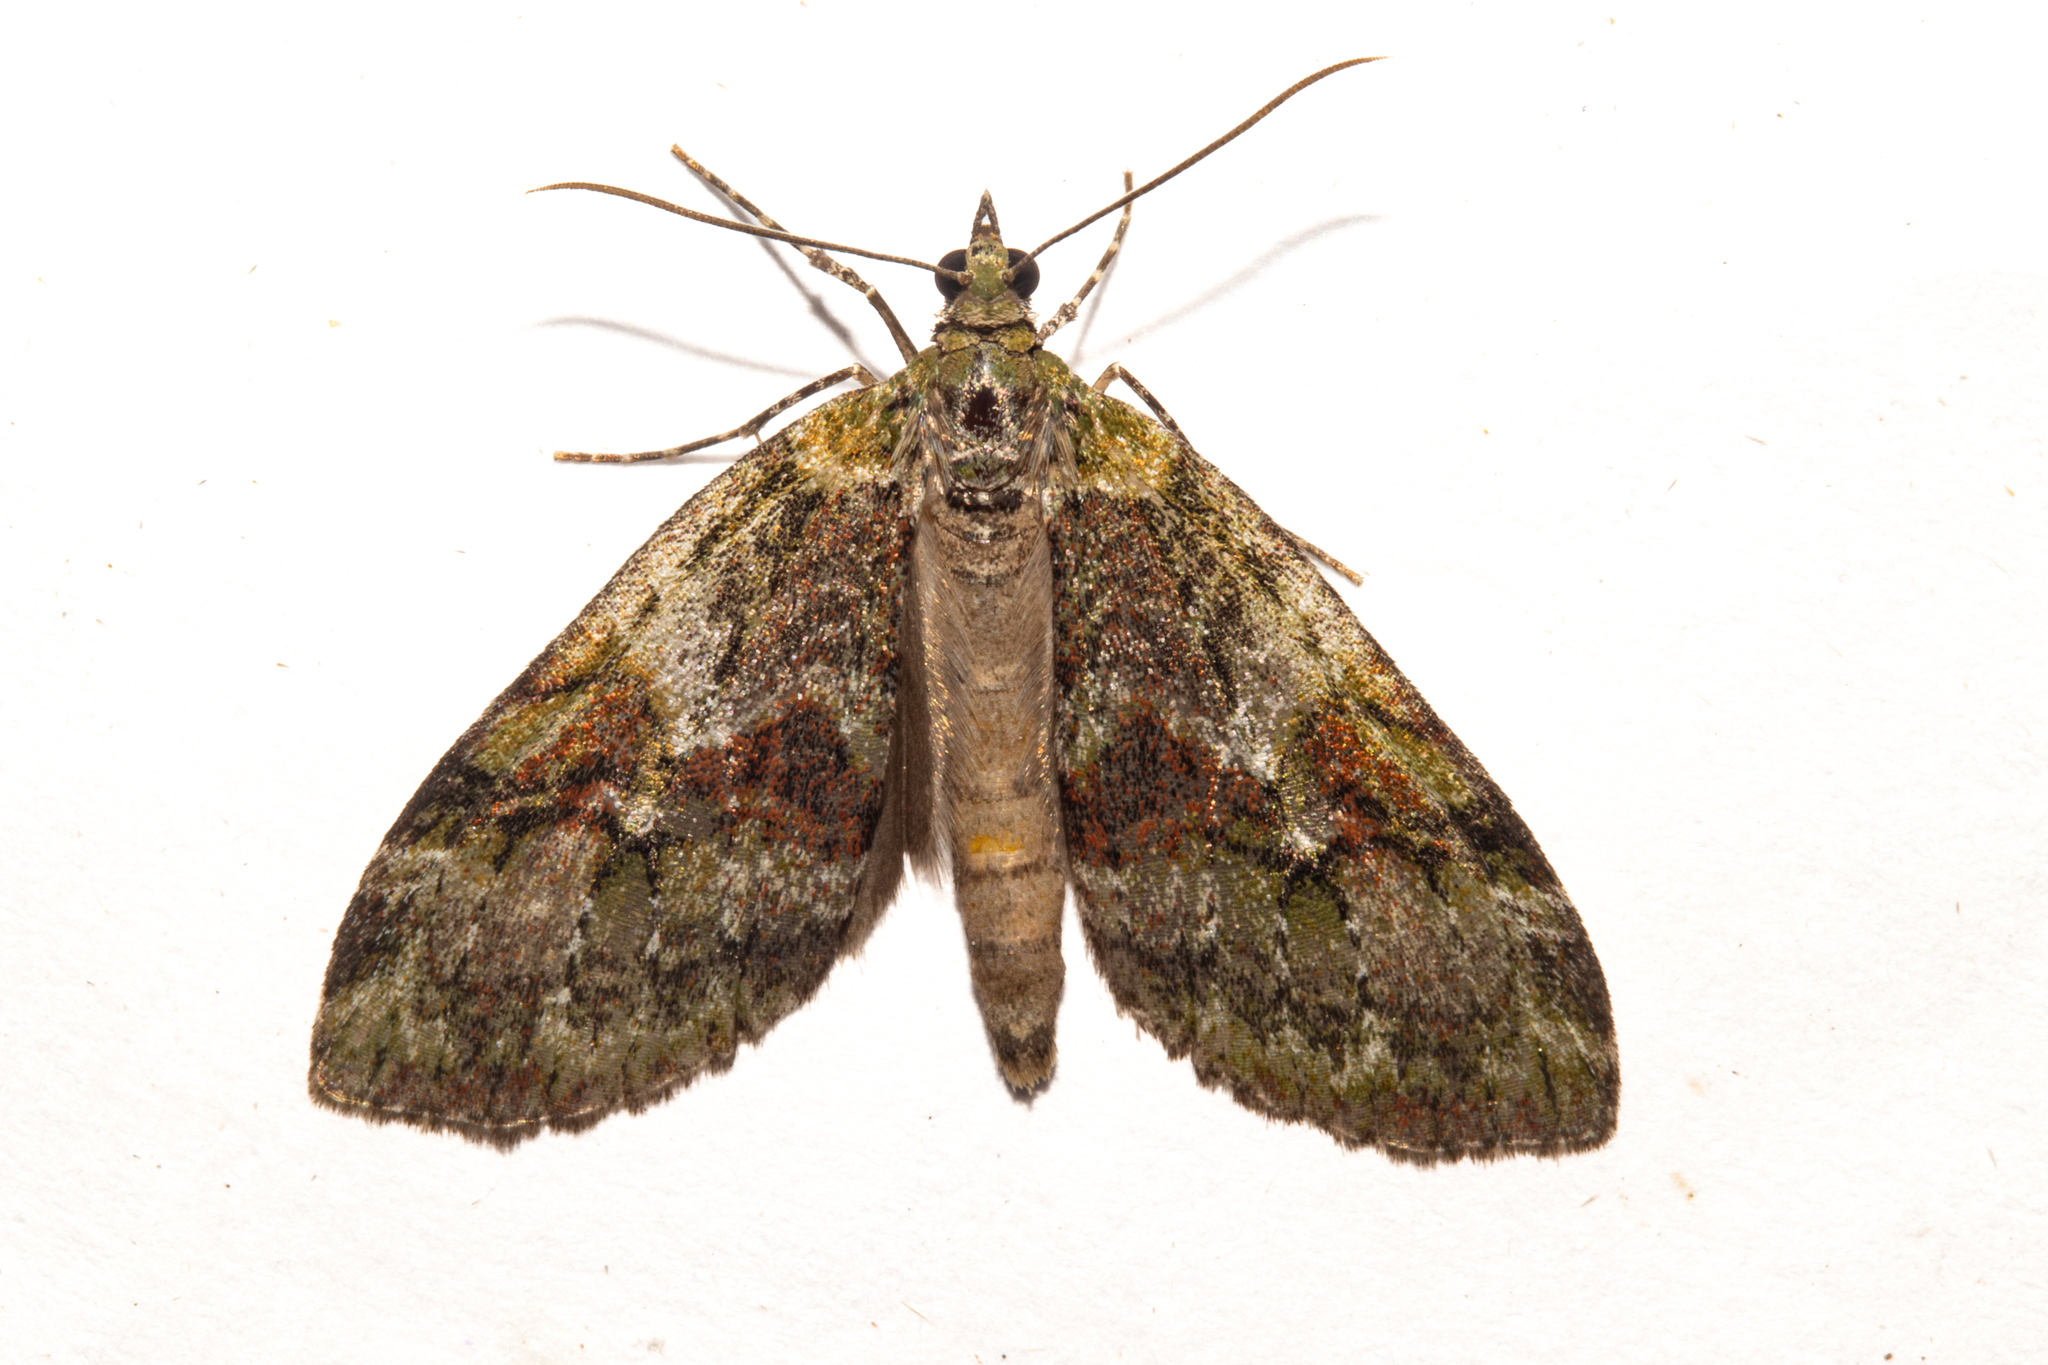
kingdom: Animalia
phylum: Arthropoda
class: Insecta
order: Lepidoptera
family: Geometridae
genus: Tatosoma
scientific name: Tatosoma topea
